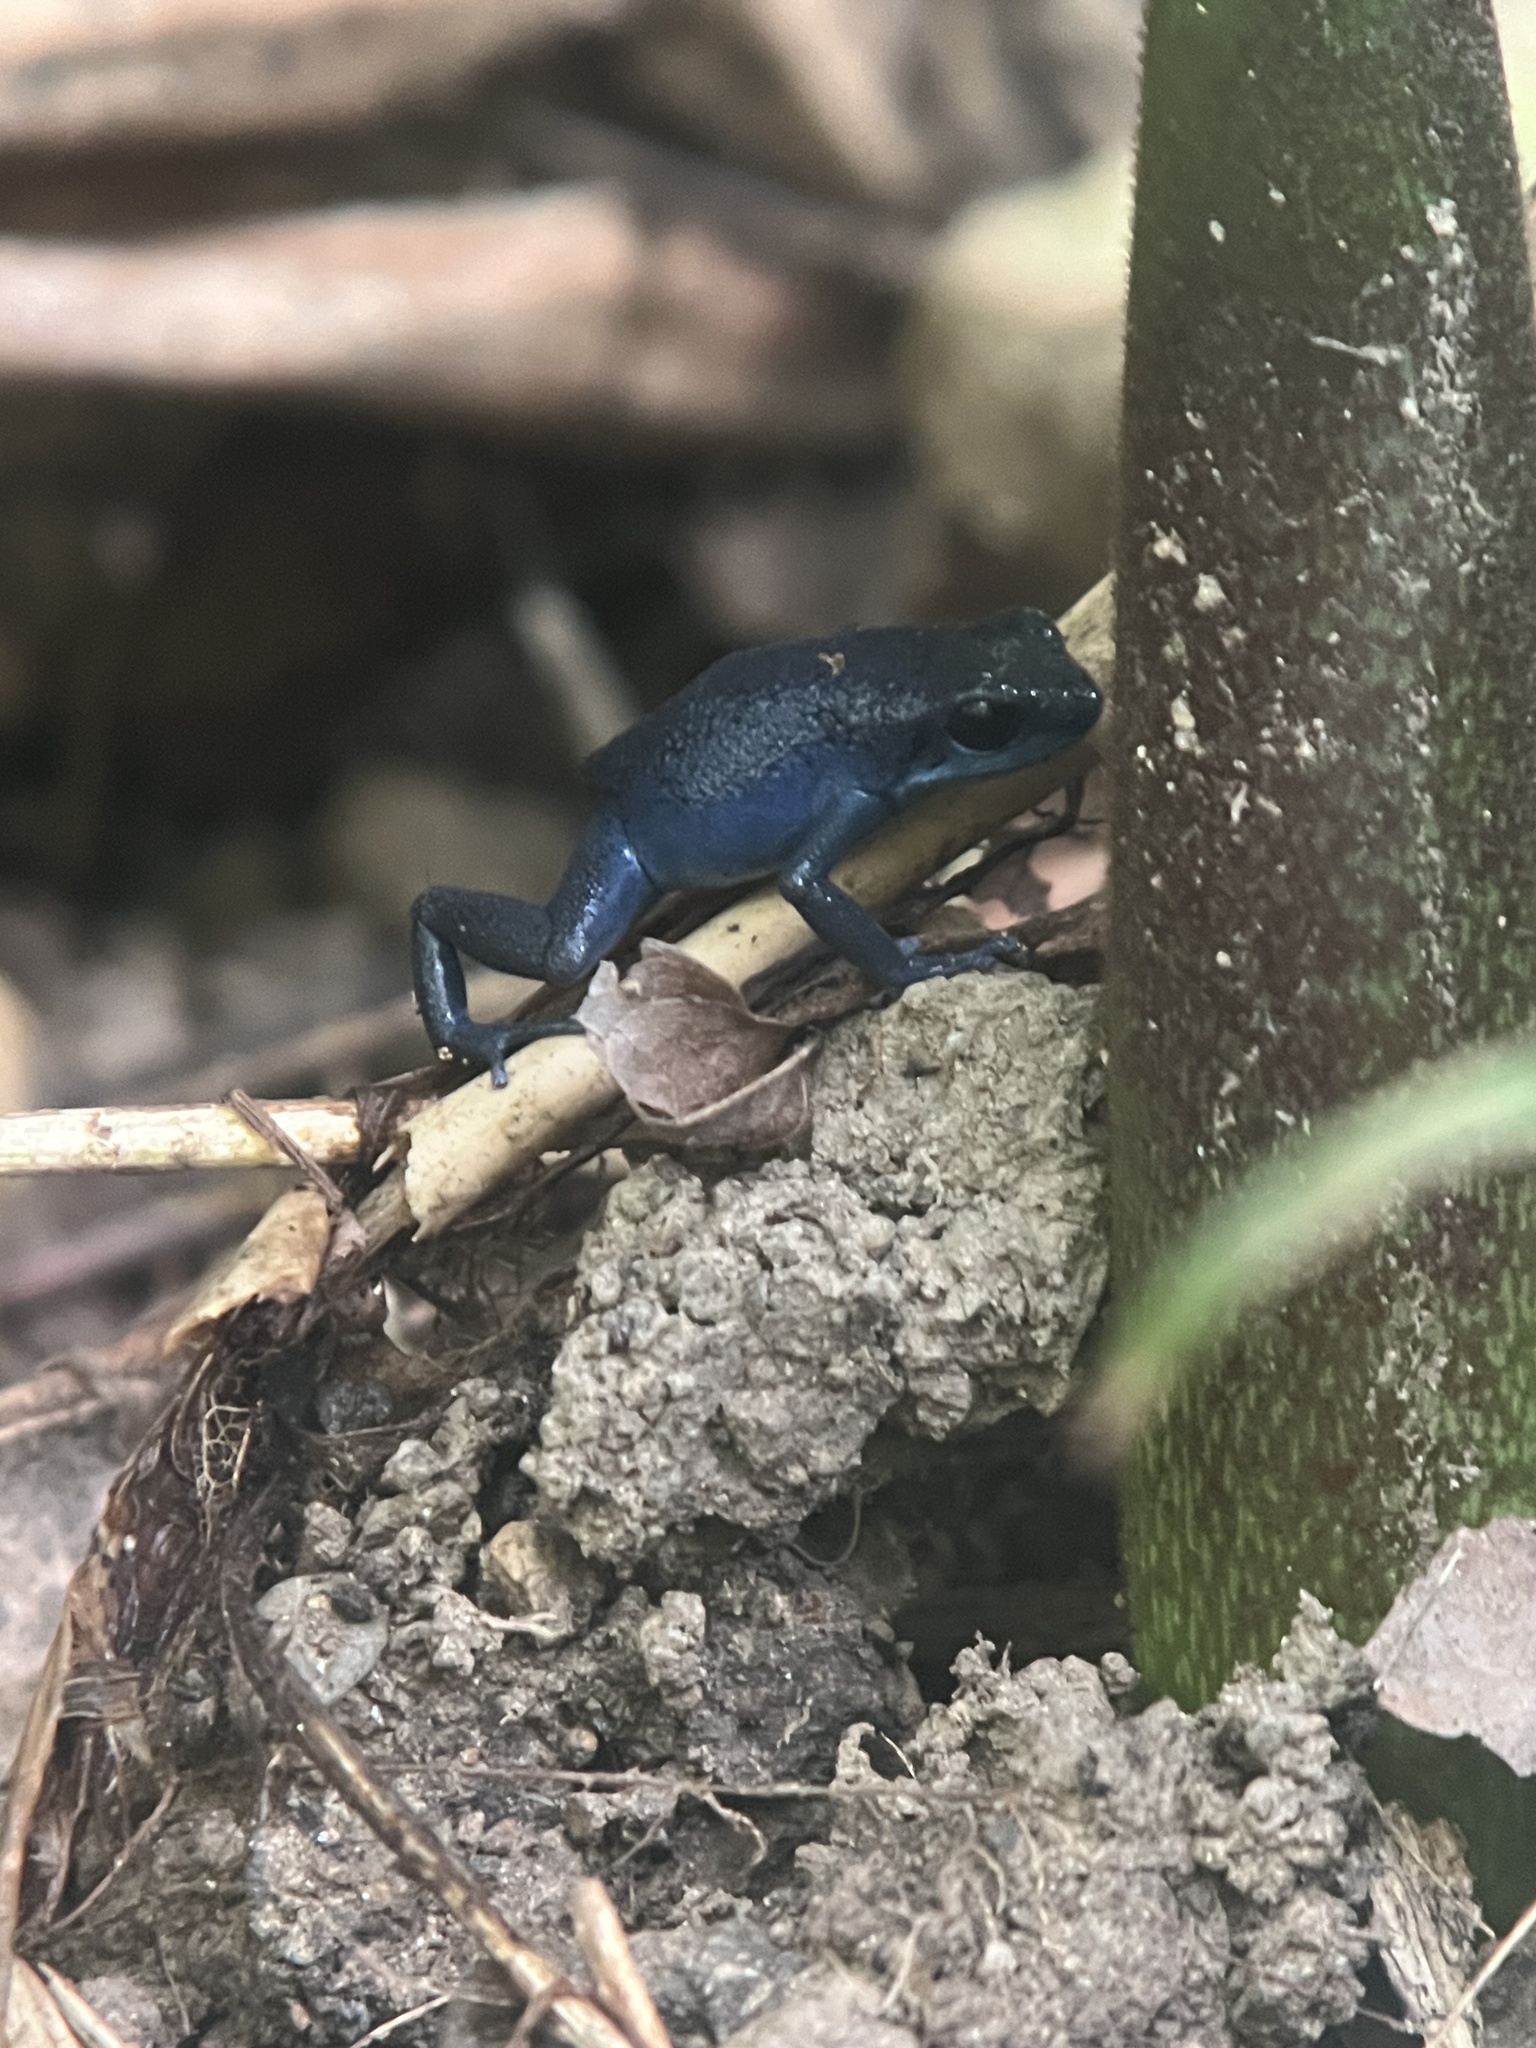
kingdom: Animalia
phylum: Chordata
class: Amphibia
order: Anura
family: Dendrobatidae
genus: Oophaga
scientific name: Oophaga pumilio
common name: Flaming poison frog
